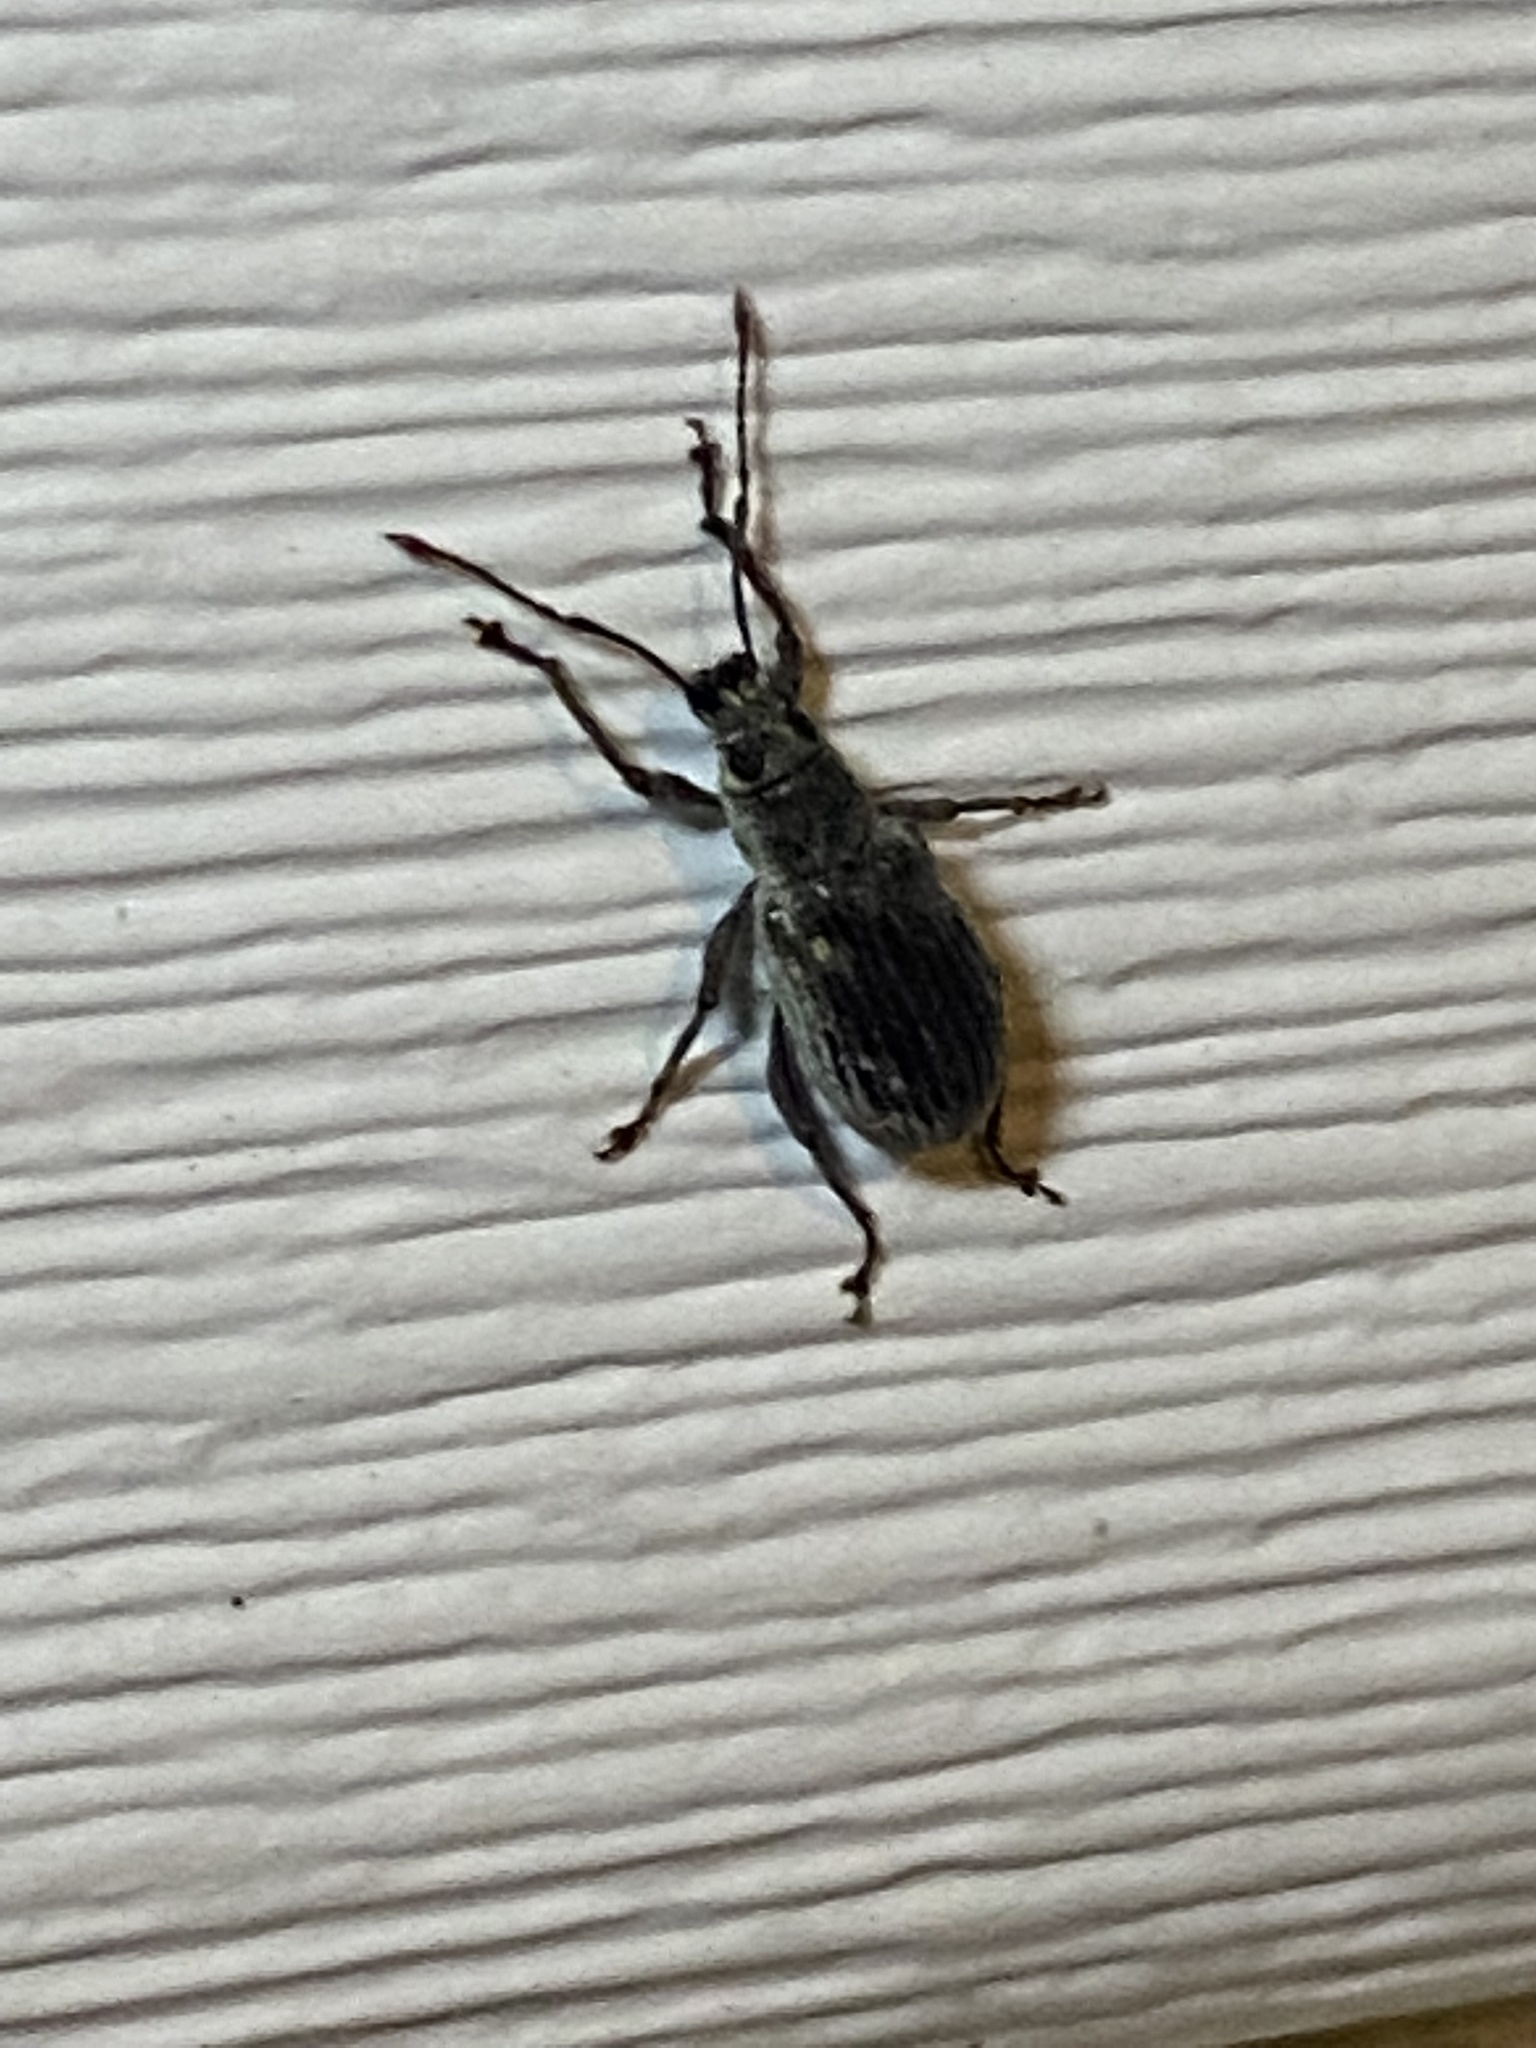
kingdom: Animalia
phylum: Arthropoda
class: Insecta
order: Coleoptera
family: Curculionidae
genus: Cyrtepistomus
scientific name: Cyrtepistomus castaneus
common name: Weevil
